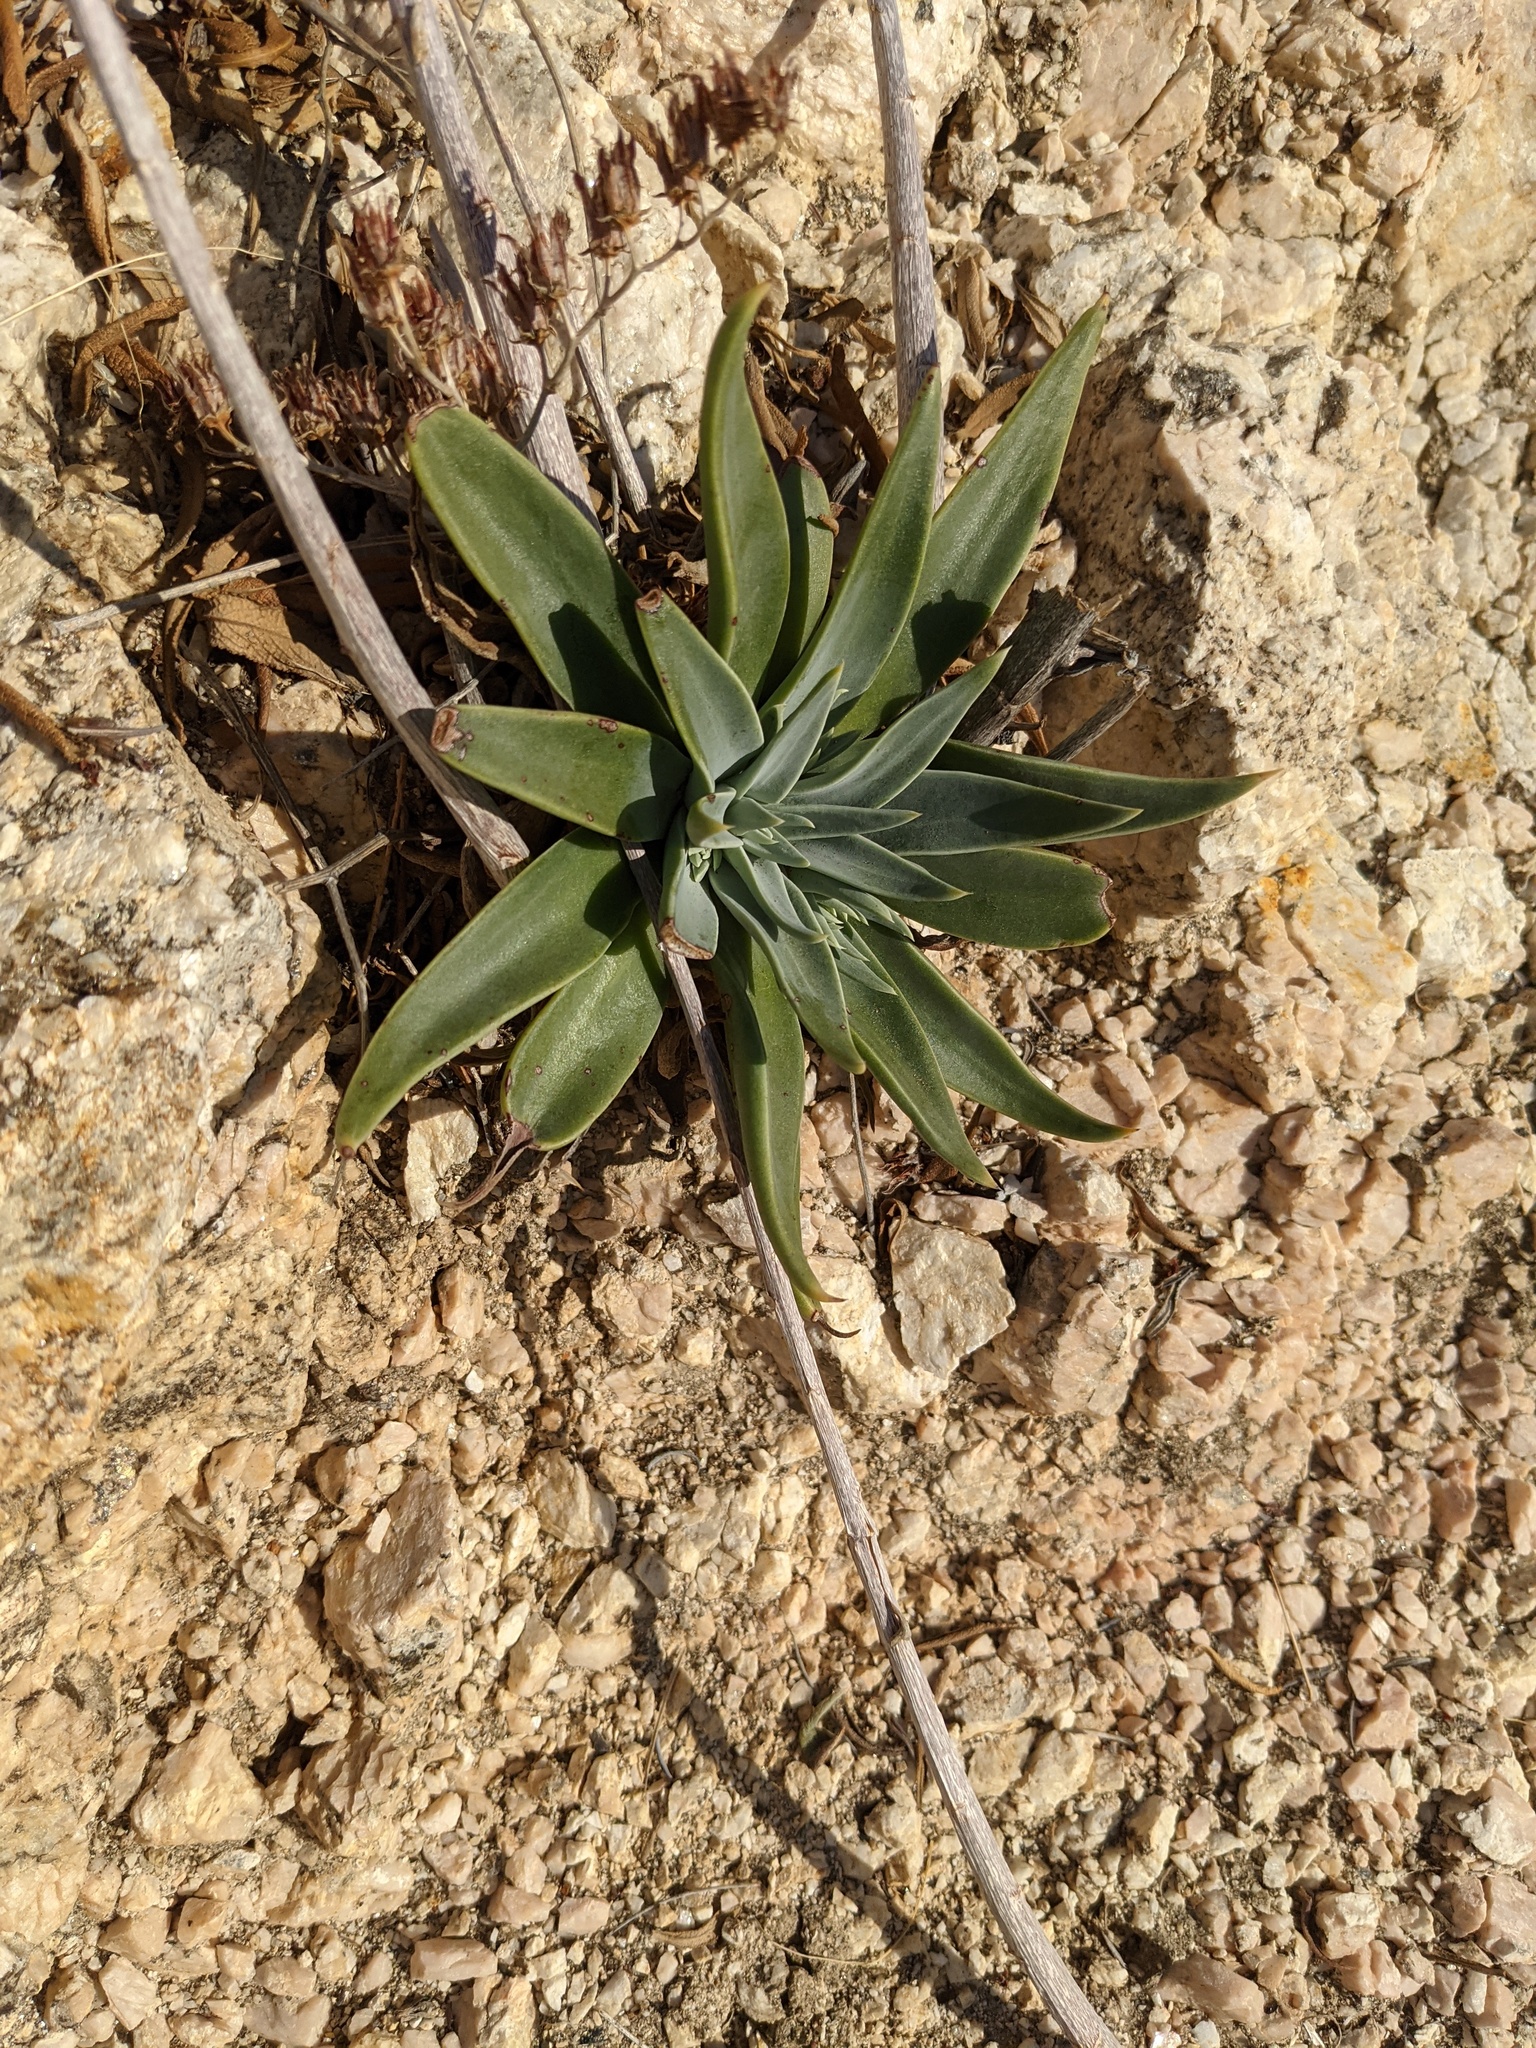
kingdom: Plantae
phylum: Tracheophyta
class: Magnoliopsida
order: Saxifragales
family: Crassulaceae
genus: Dudleya
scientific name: Dudleya lanceolata
